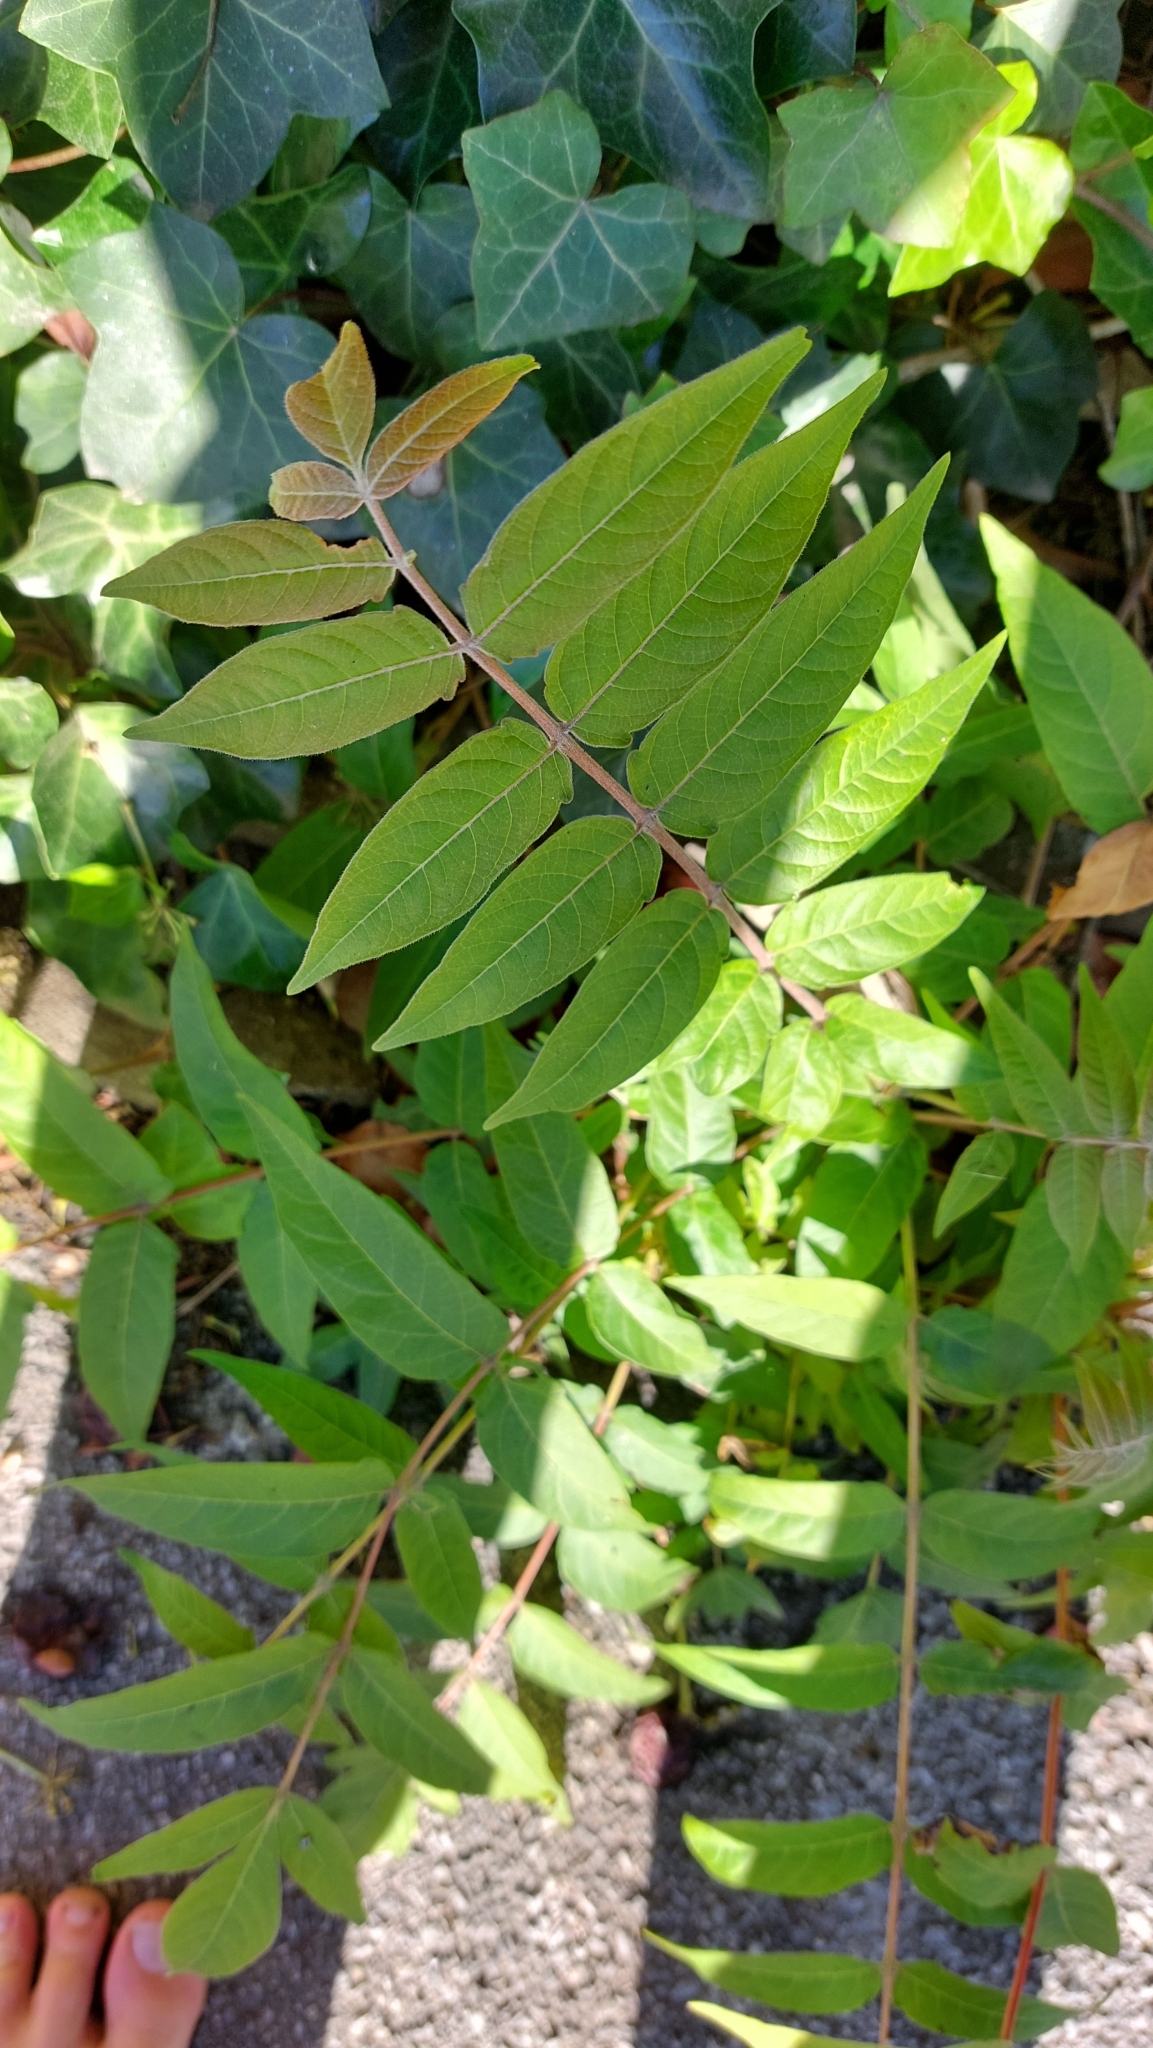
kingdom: Plantae
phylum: Tracheophyta
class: Magnoliopsida
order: Sapindales
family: Simaroubaceae
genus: Ailanthus
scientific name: Ailanthus altissima
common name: Tree-of-heaven
